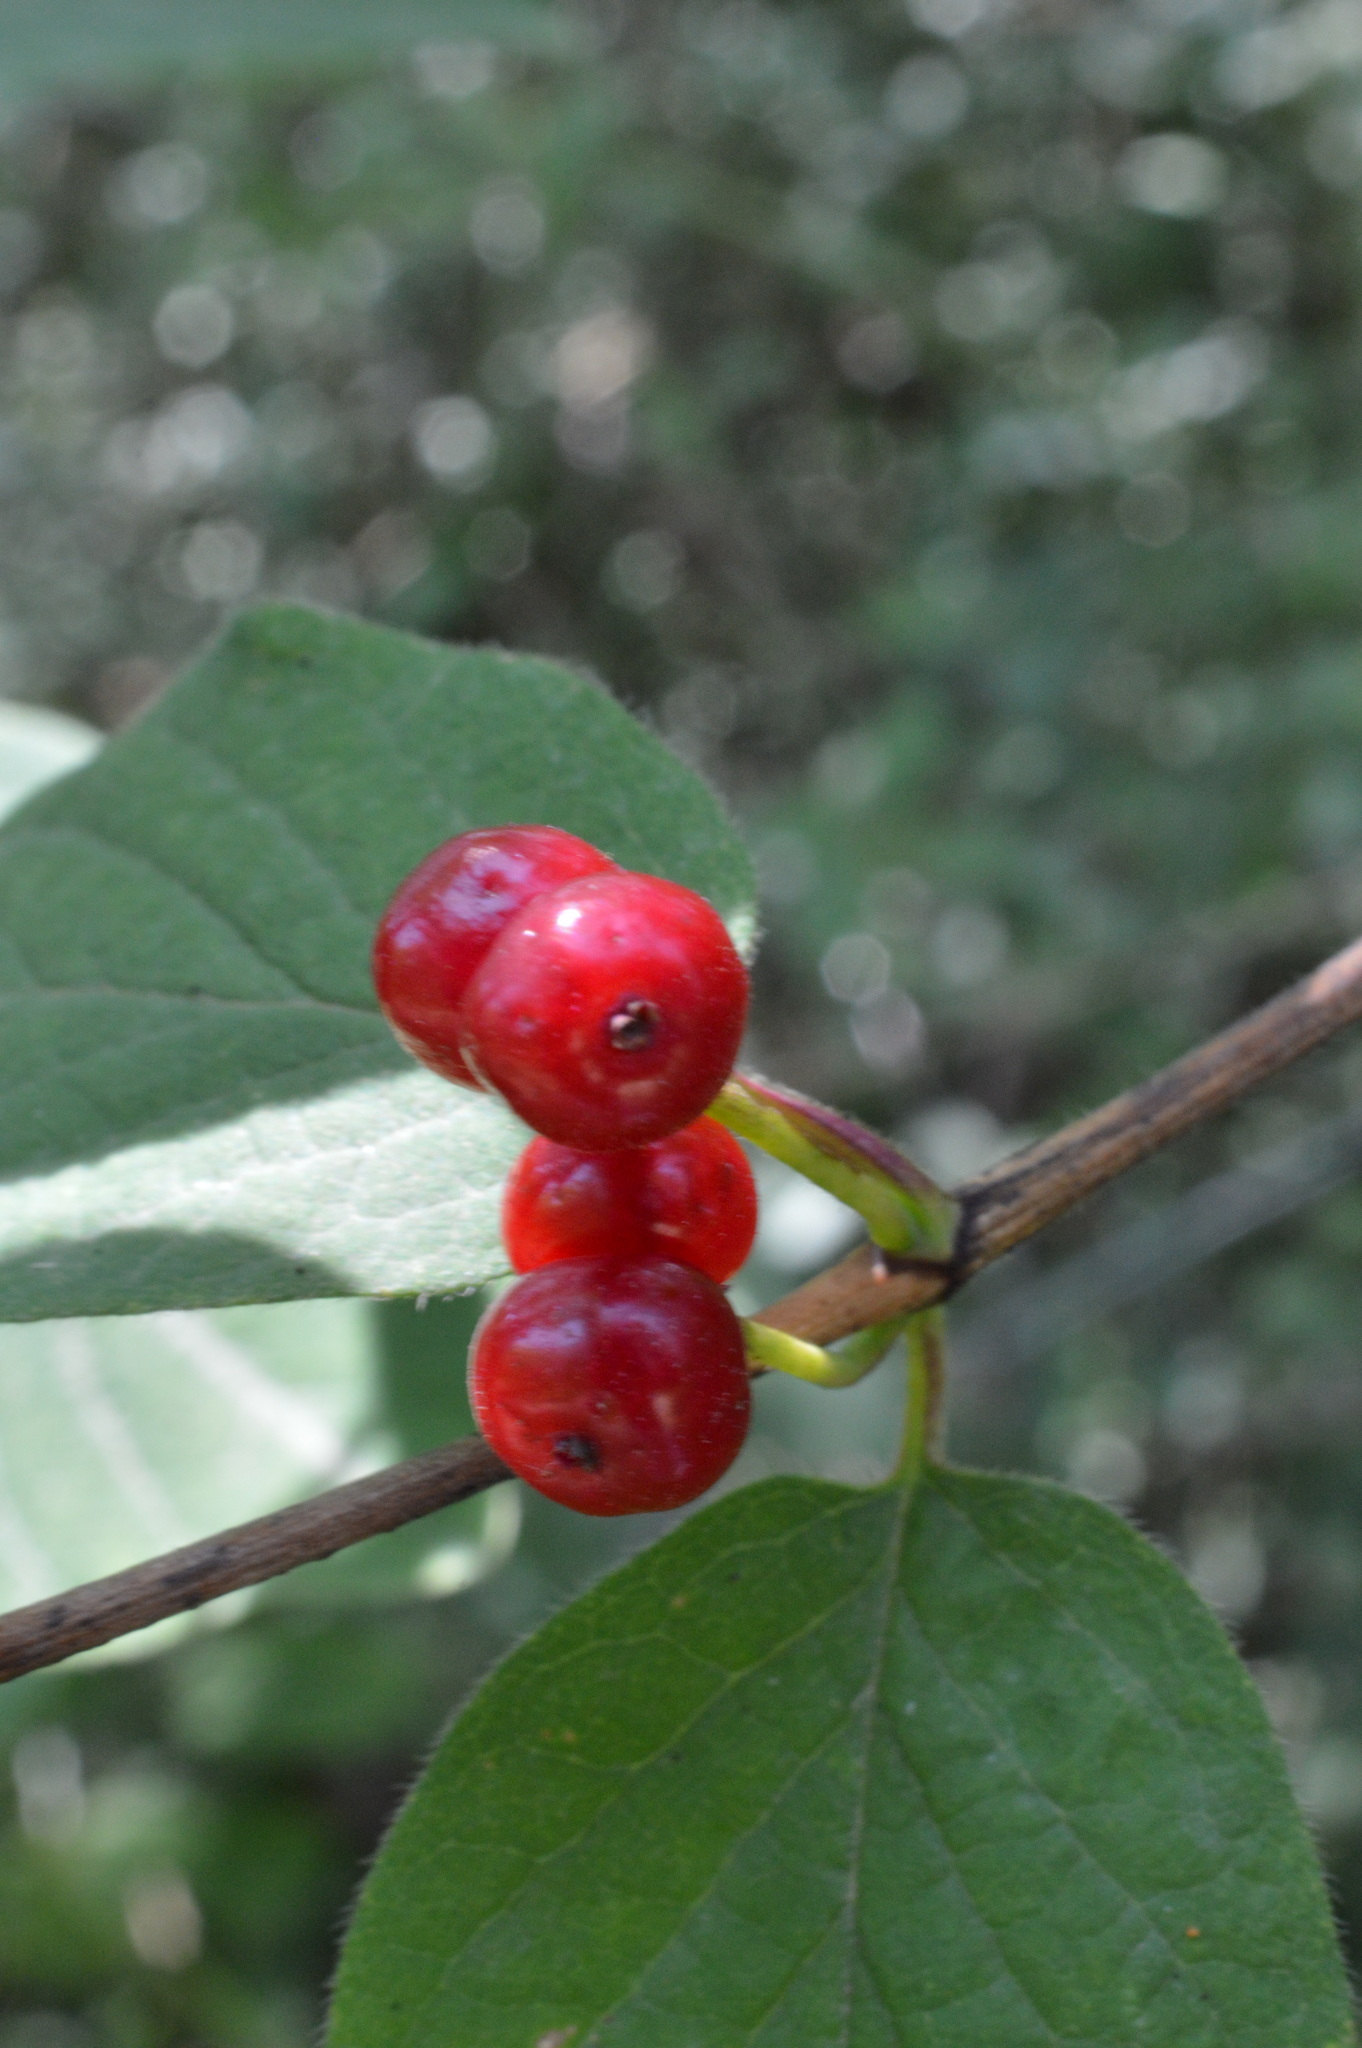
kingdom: Plantae
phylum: Tracheophyta
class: Magnoliopsida
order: Dipsacales
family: Caprifoliaceae
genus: Lonicera
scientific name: Lonicera xylosteum
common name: Fly honeysuckle
